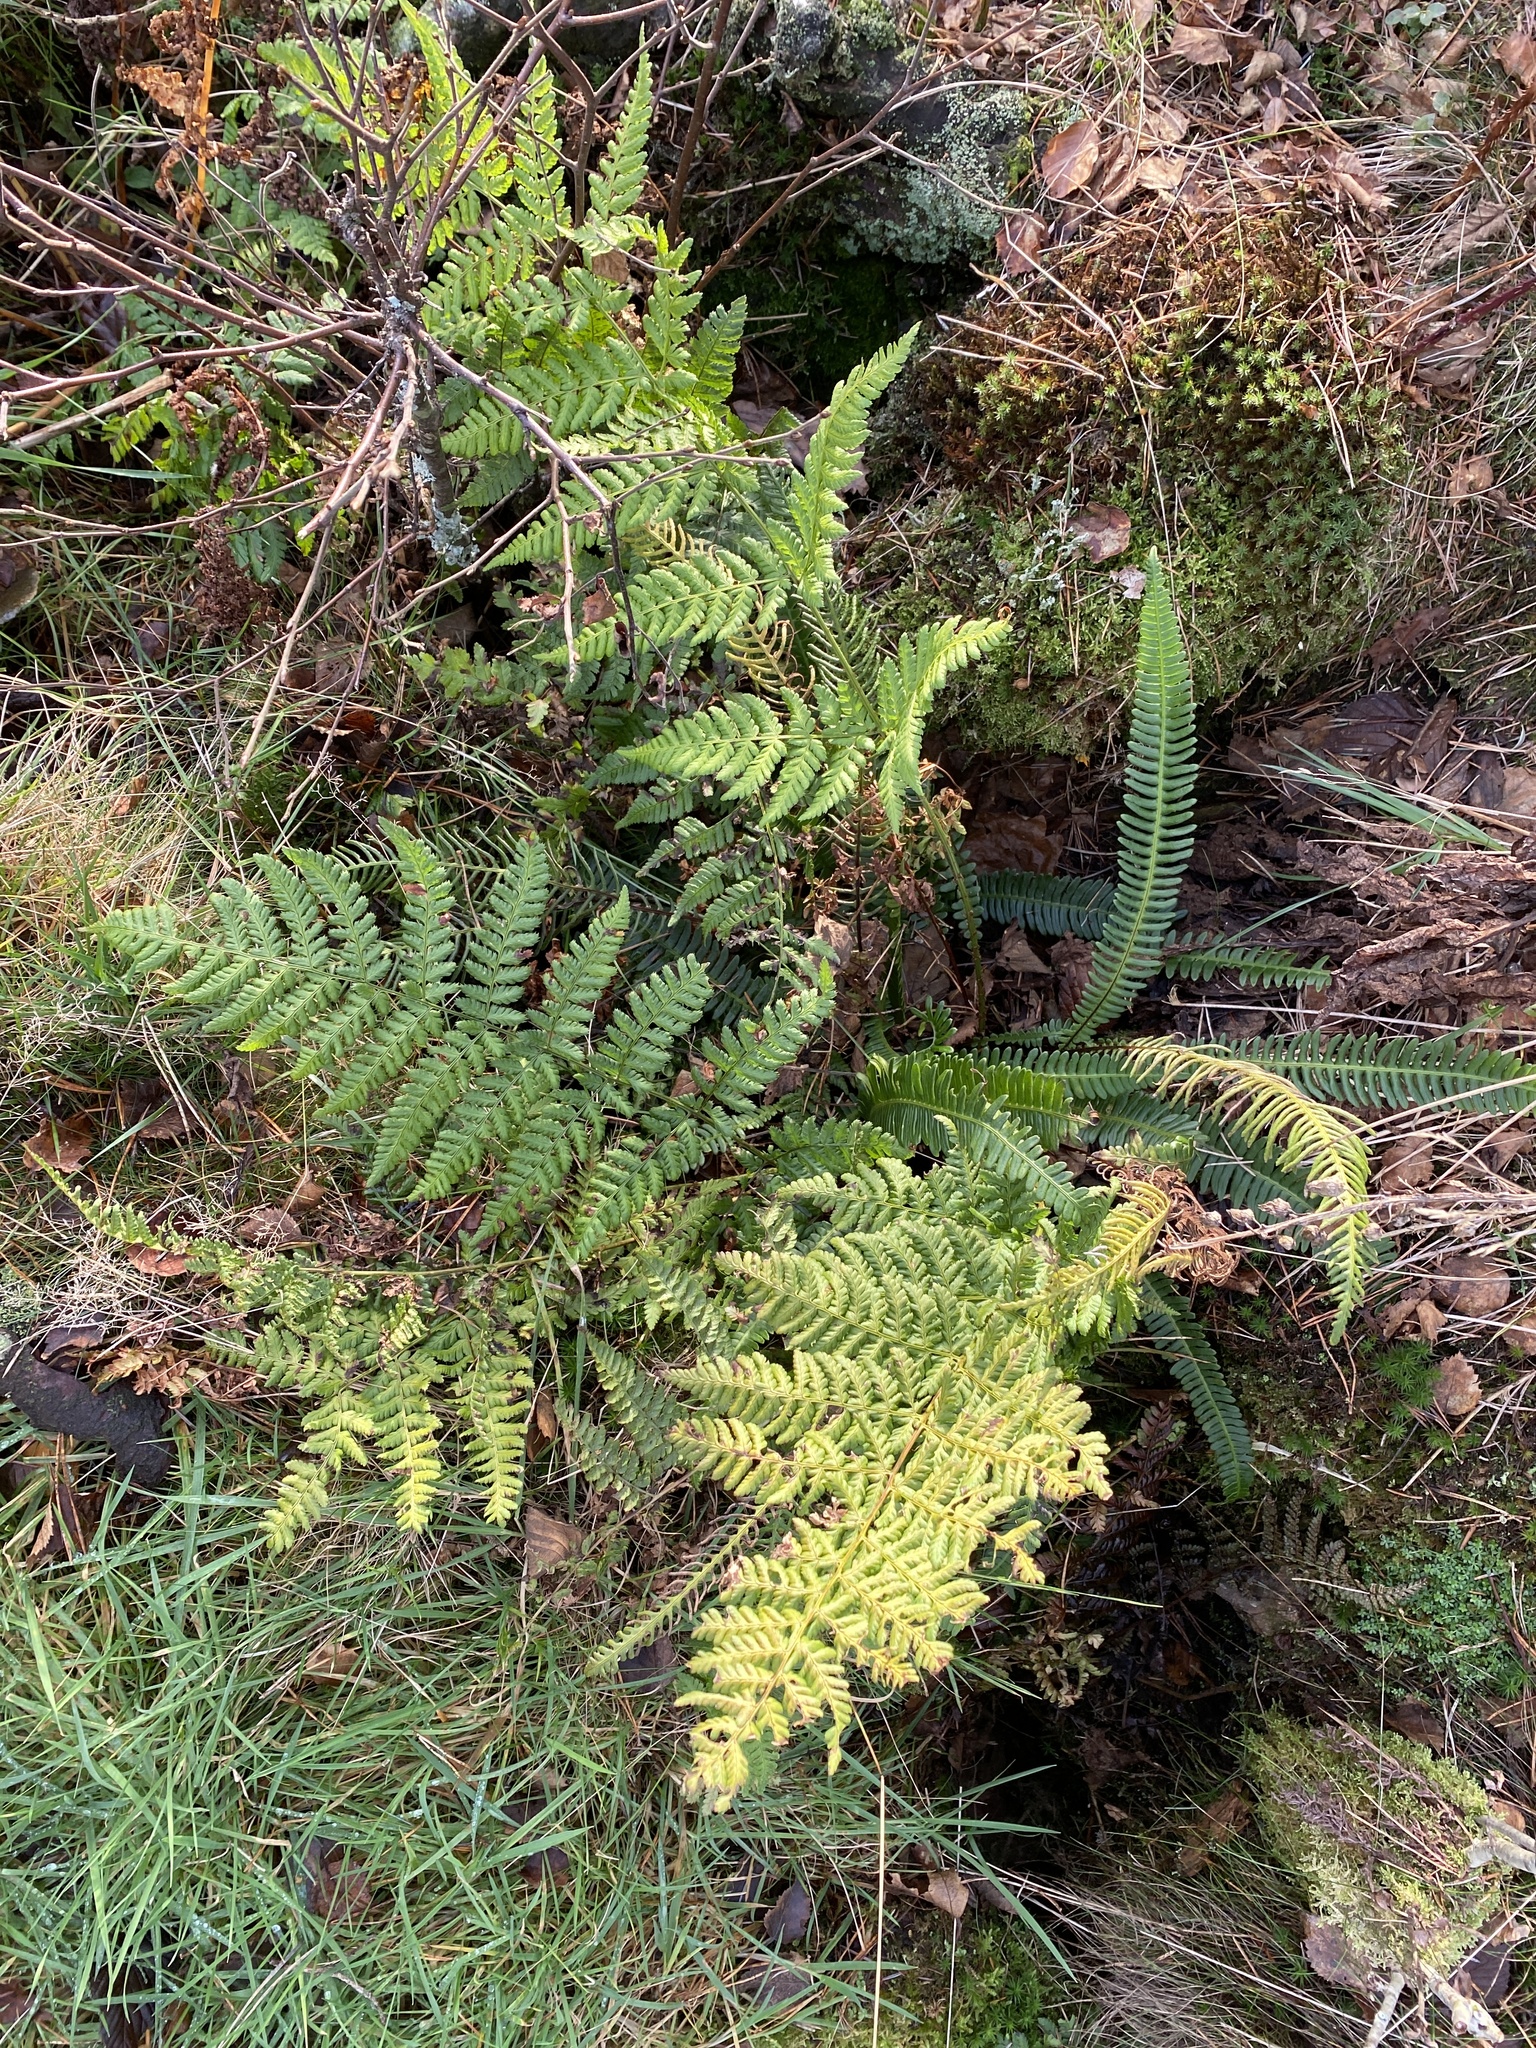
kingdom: Plantae
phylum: Tracheophyta
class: Polypodiopsida
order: Polypodiales
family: Dryopteridaceae
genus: Dryopteris
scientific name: Dryopteris dilatata
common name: Broad buckler-fern
